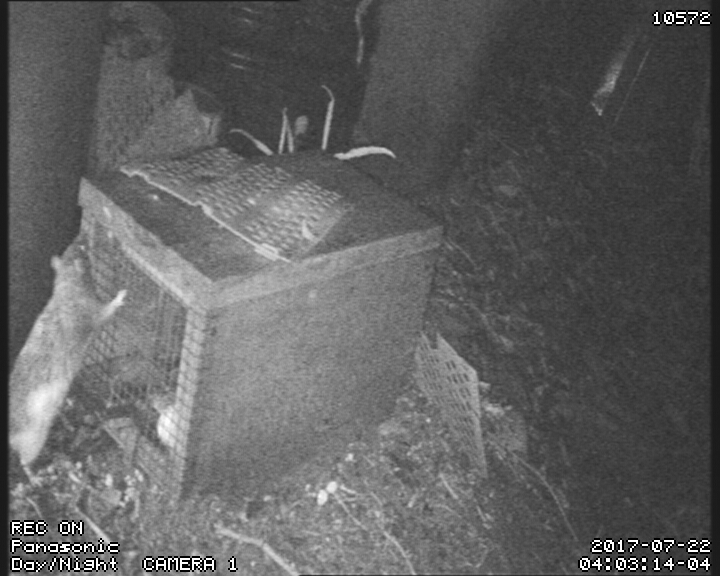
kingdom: Animalia
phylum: Chordata
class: Mammalia
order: Rodentia
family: Muridae
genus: Rattus
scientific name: Rattus norvegicus
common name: Brown rat
